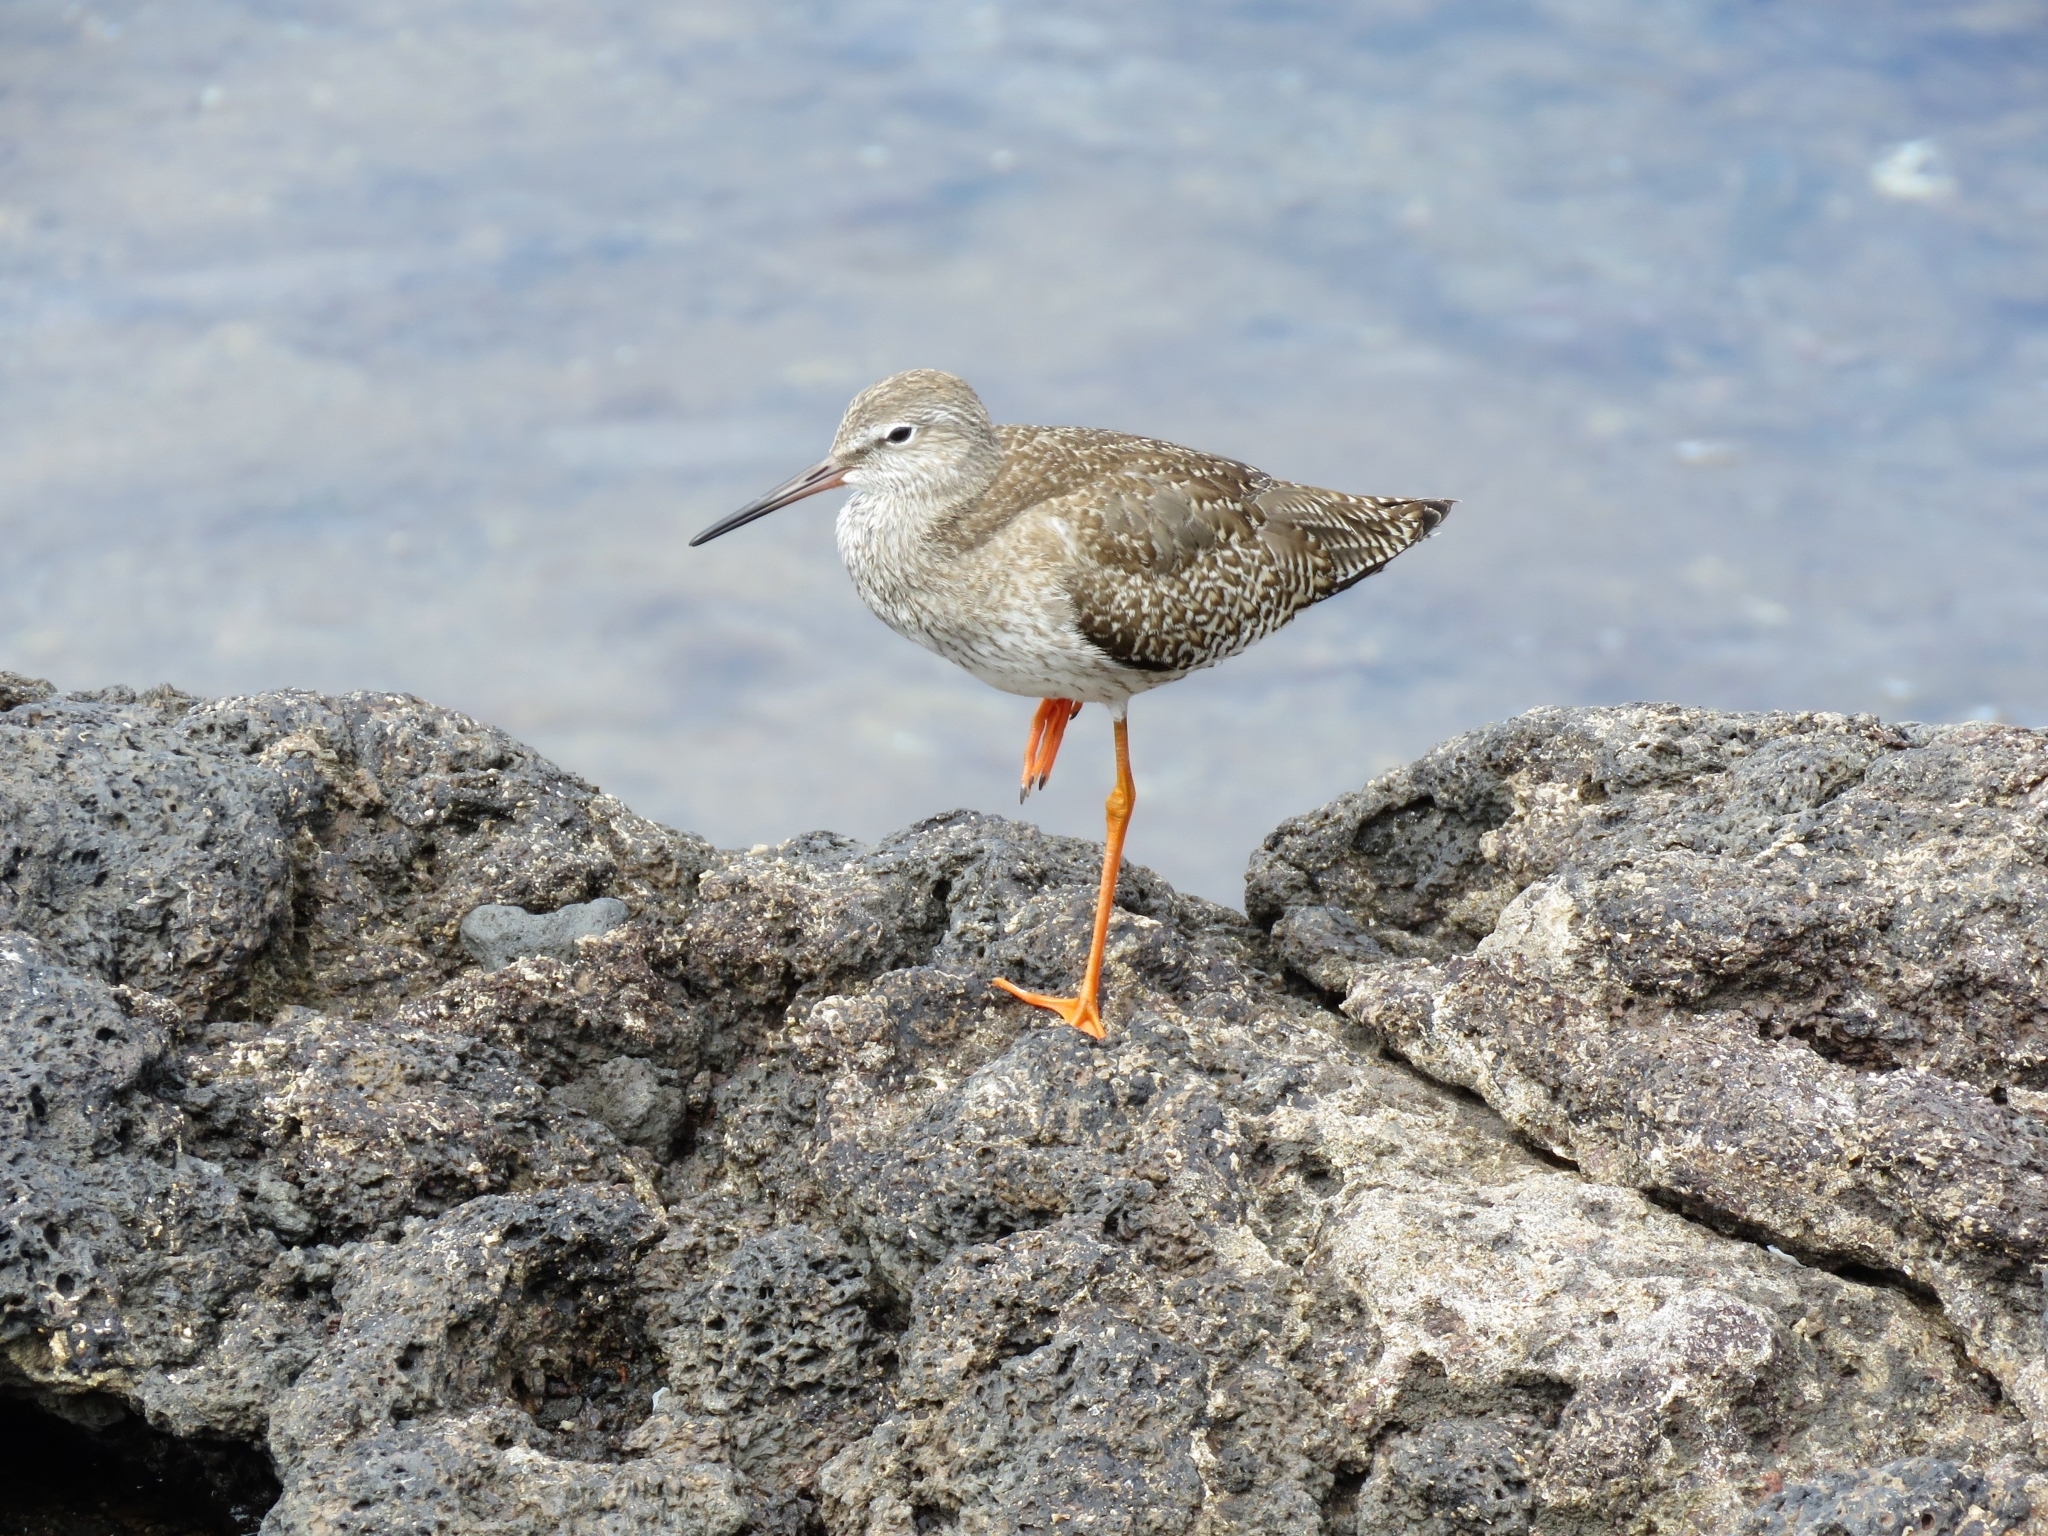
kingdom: Animalia
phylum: Chordata
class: Aves
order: Charadriiformes
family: Scolopacidae
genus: Tringa
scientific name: Tringa totanus
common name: Common redshank
